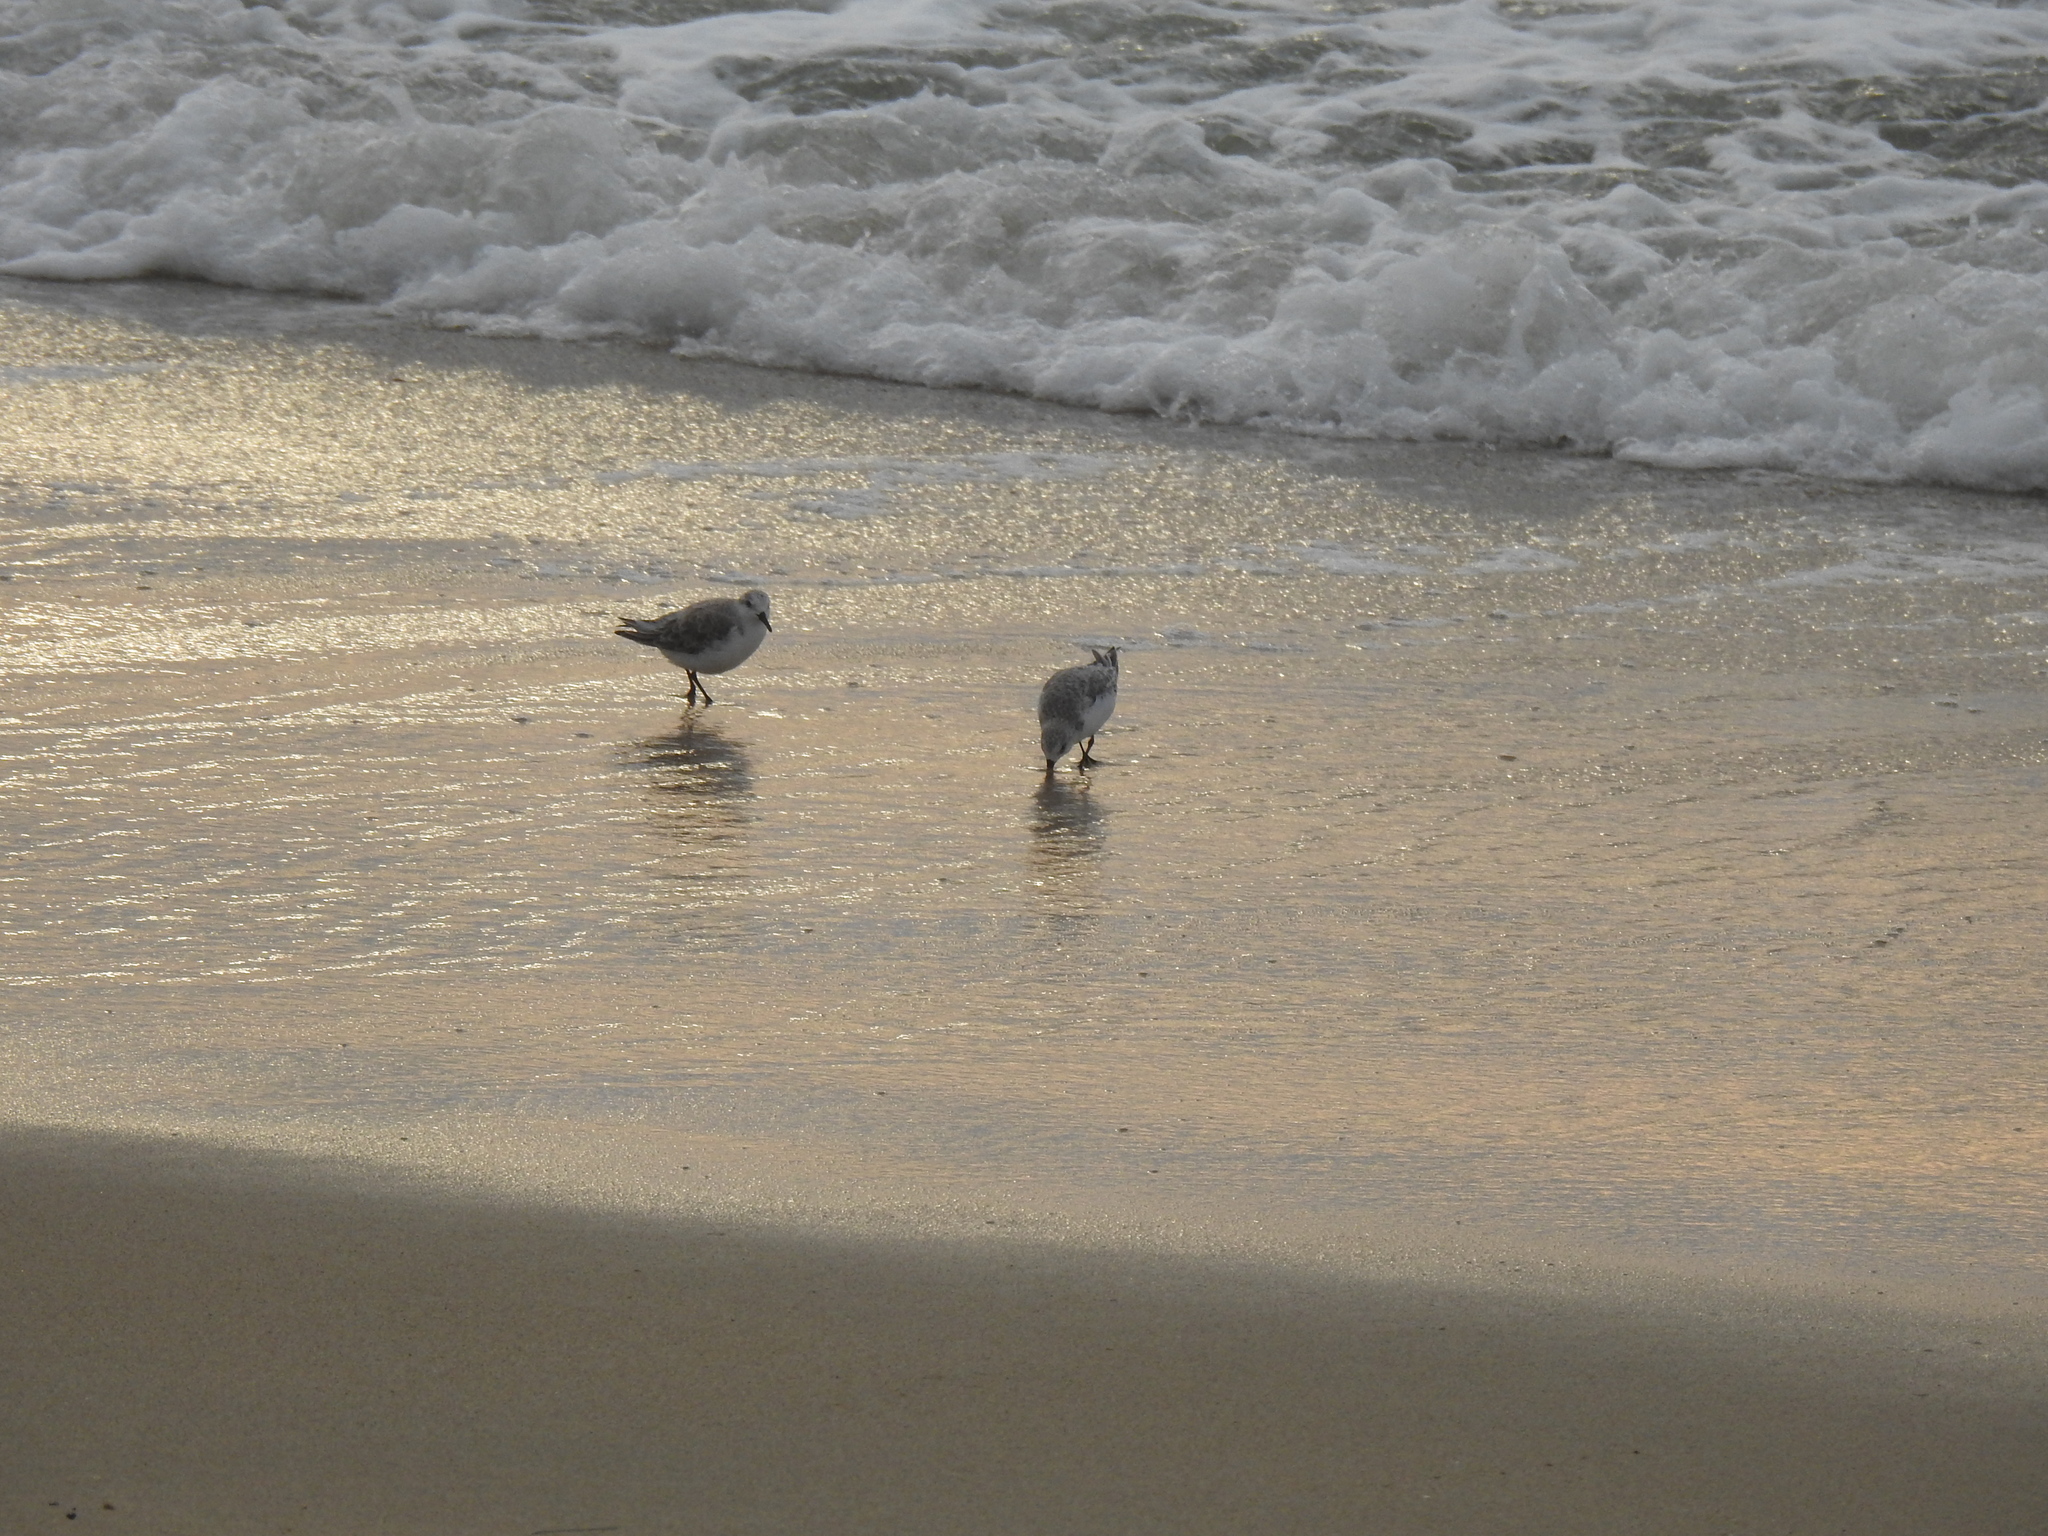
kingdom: Animalia
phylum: Chordata
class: Aves
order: Charadriiformes
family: Scolopacidae
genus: Calidris
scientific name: Calidris alba
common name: Sanderling
